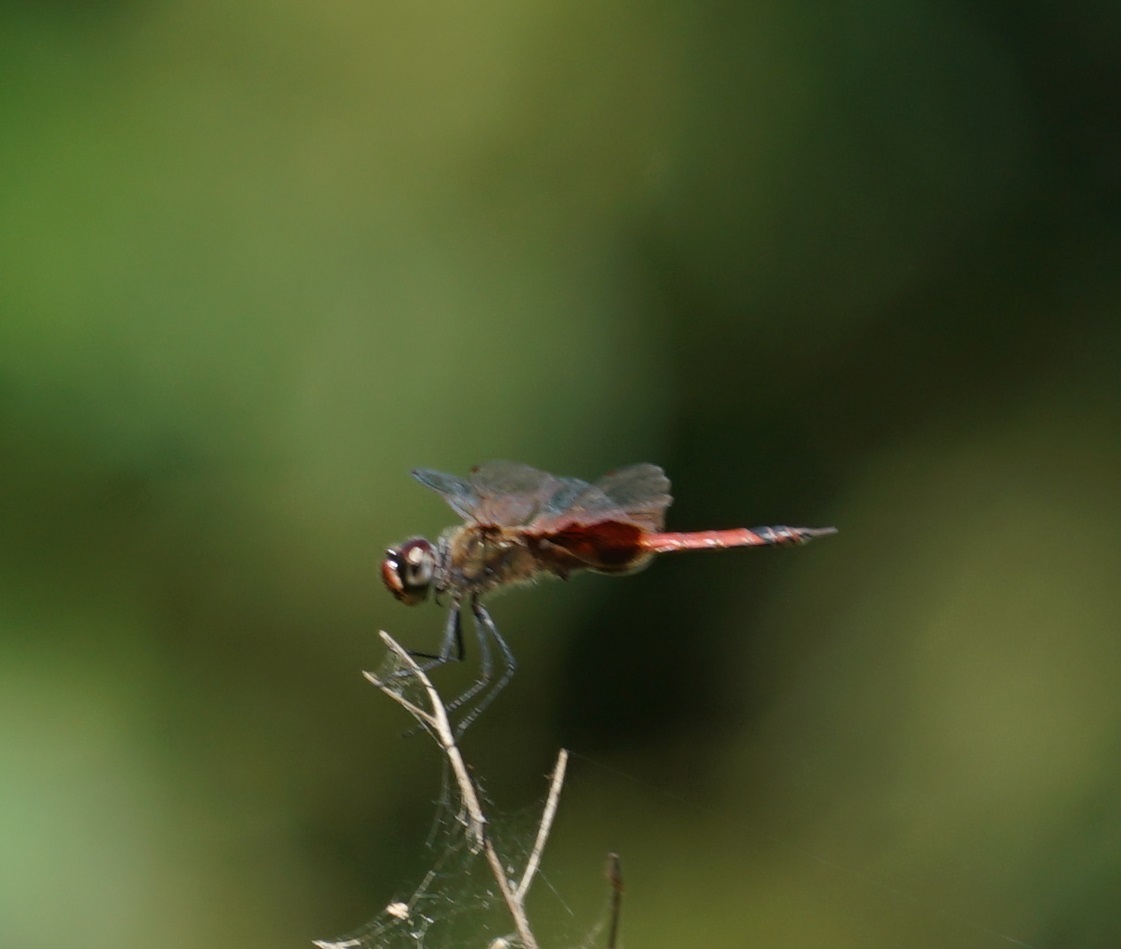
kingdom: Animalia
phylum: Arthropoda
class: Insecta
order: Odonata
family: Libellulidae
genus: Tramea
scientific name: Tramea loewii
